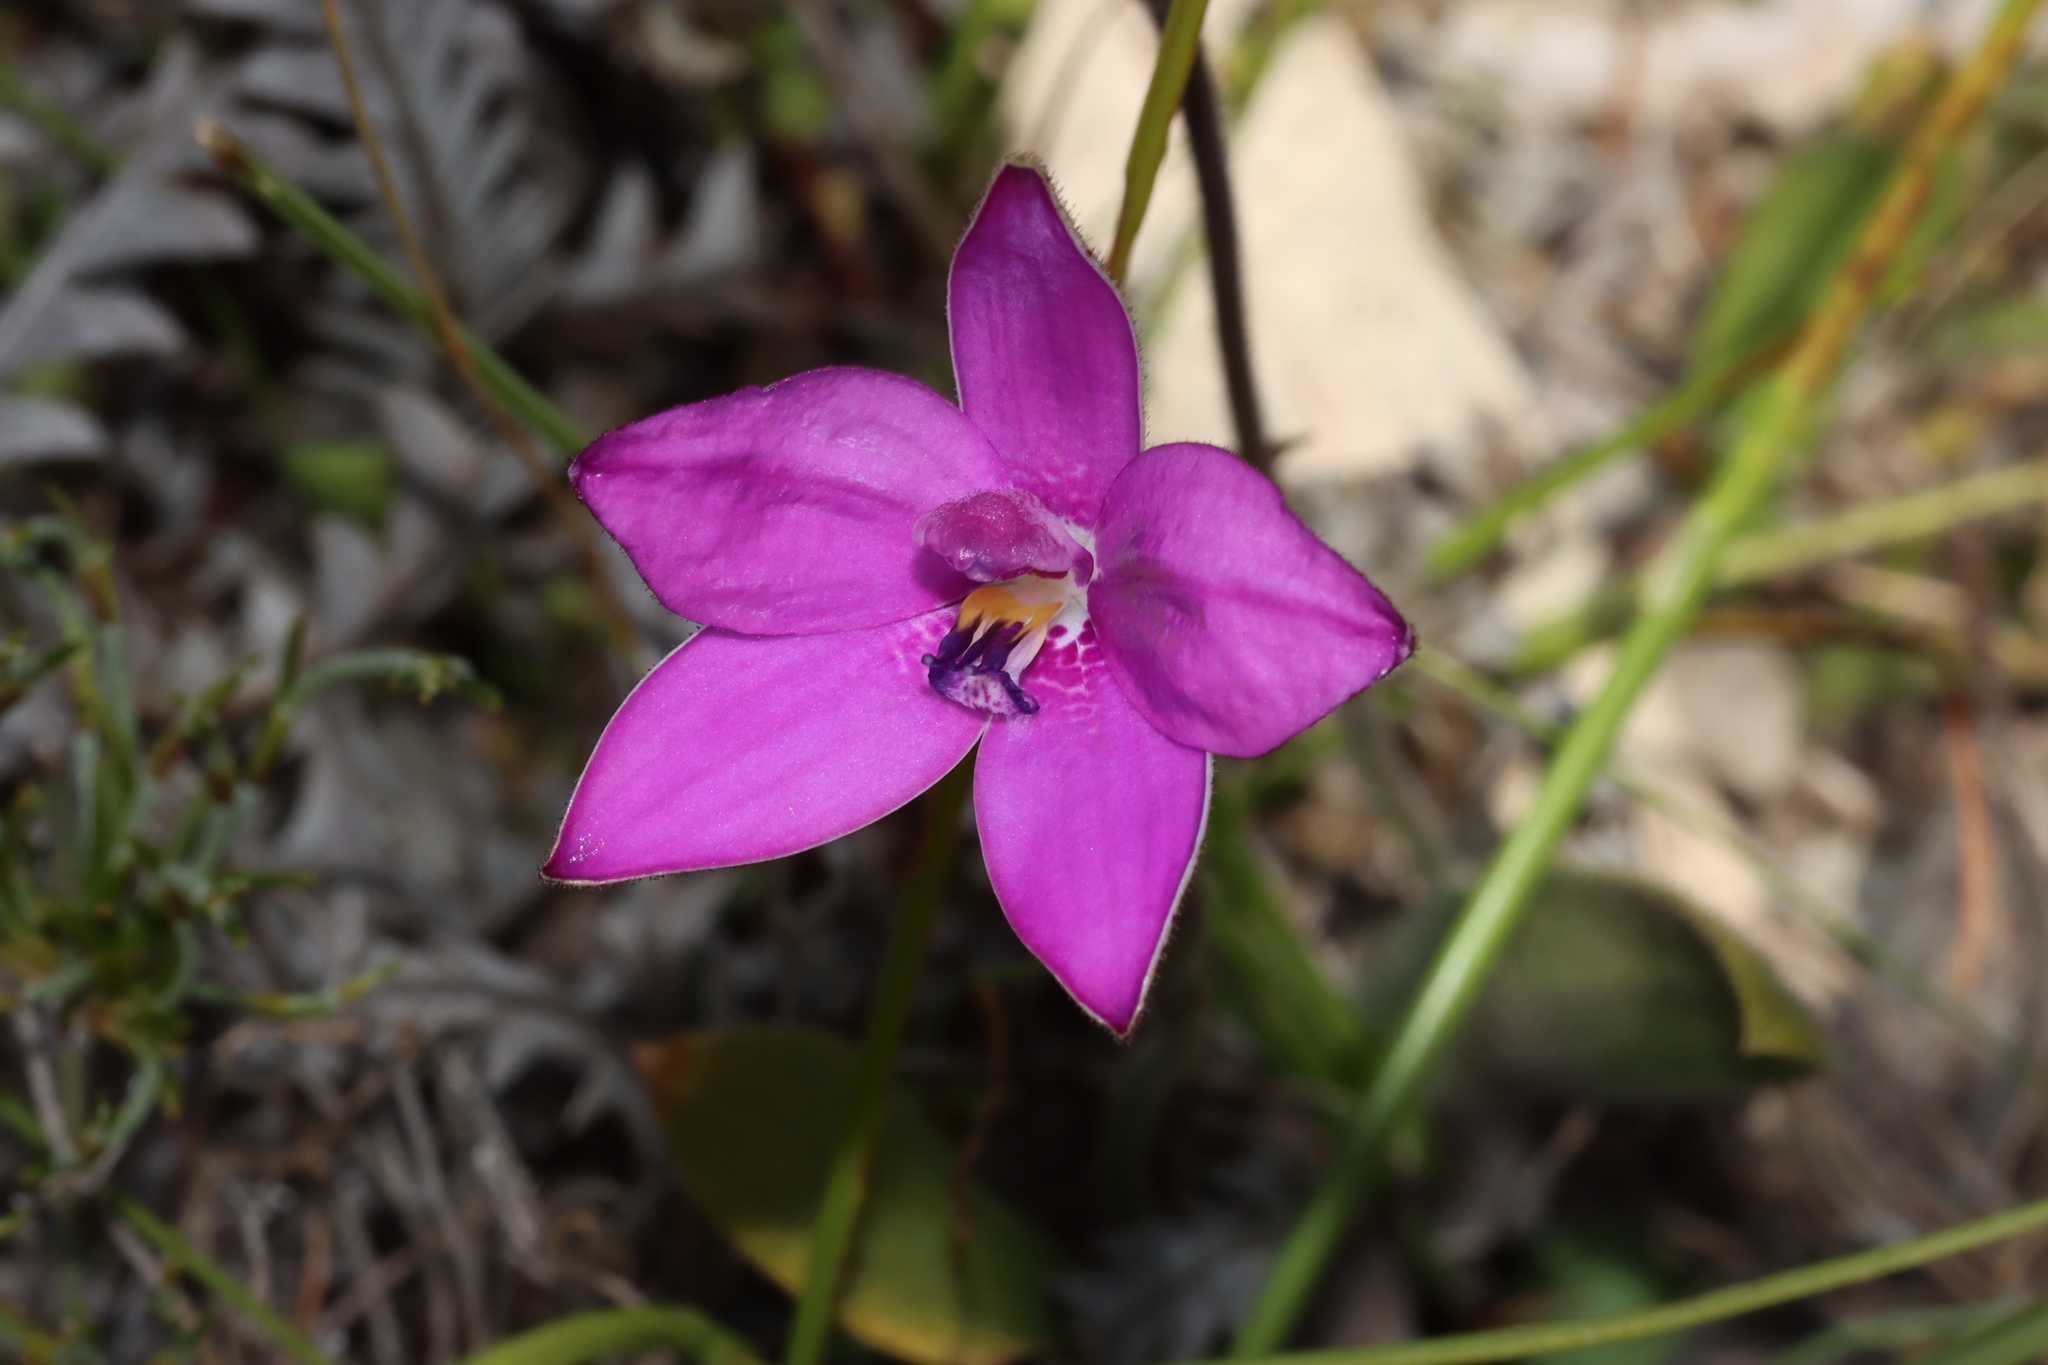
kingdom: Plantae
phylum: Tracheophyta
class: Liliopsida
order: Asparagales
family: Orchidaceae
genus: Caladenia
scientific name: Caladenia emarginata
